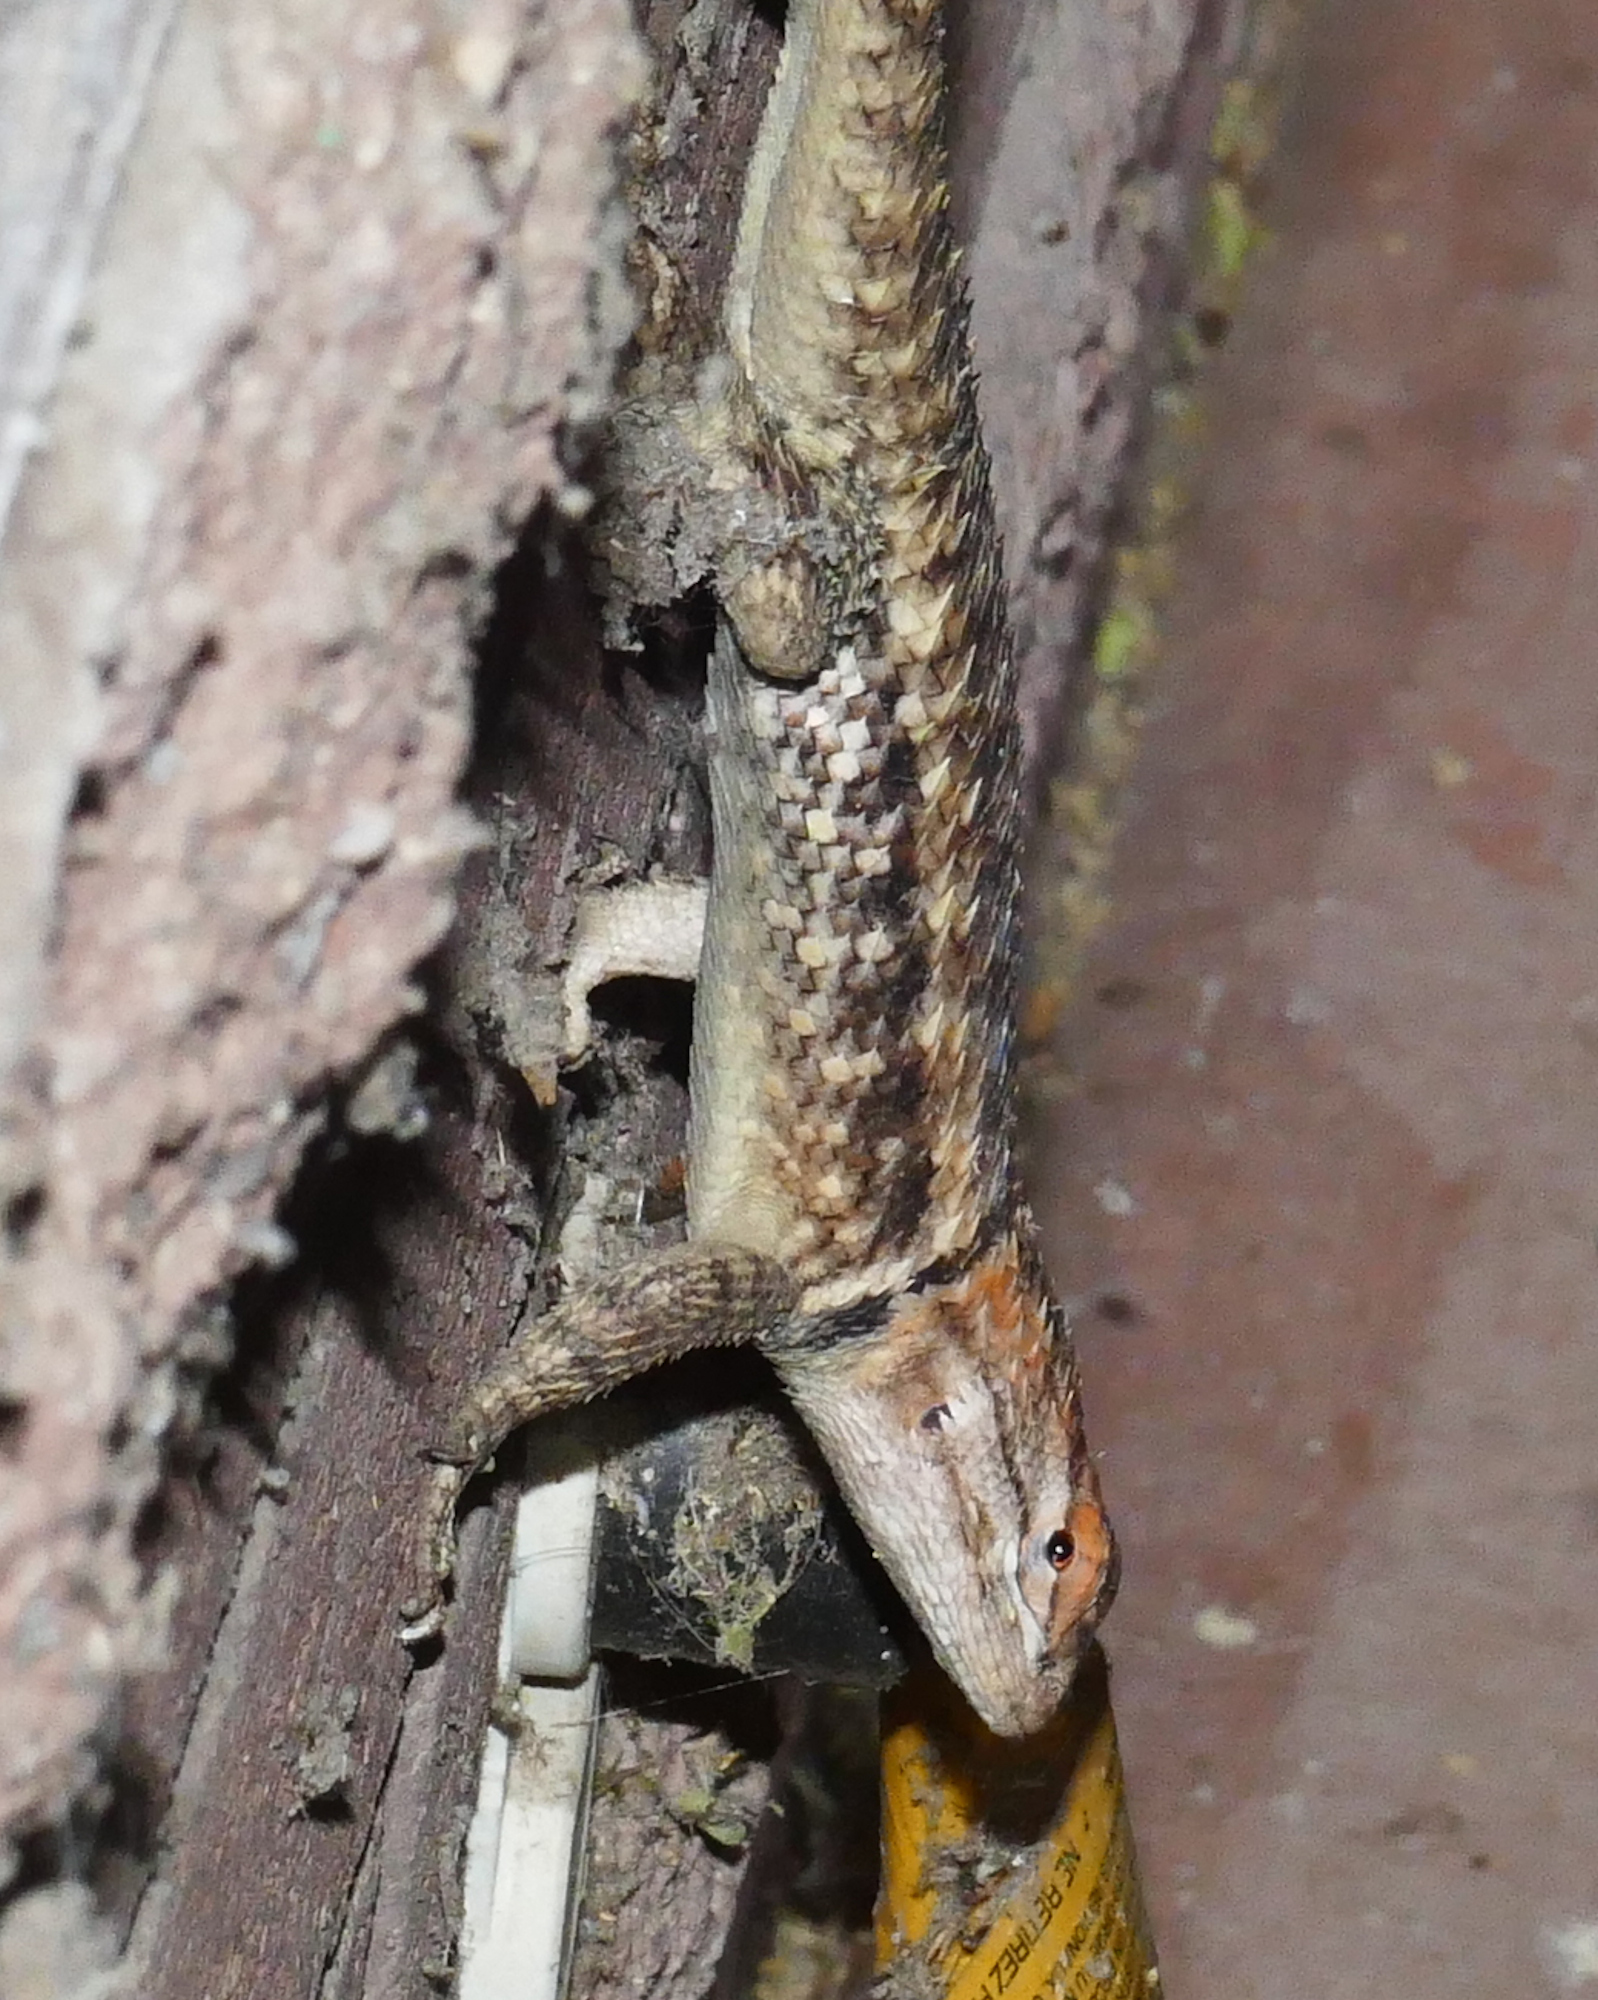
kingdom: Animalia
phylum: Chordata
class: Squamata
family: Phrynosomatidae
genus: Sceloporus
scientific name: Sceloporus magister
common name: Desert spiny lizard
